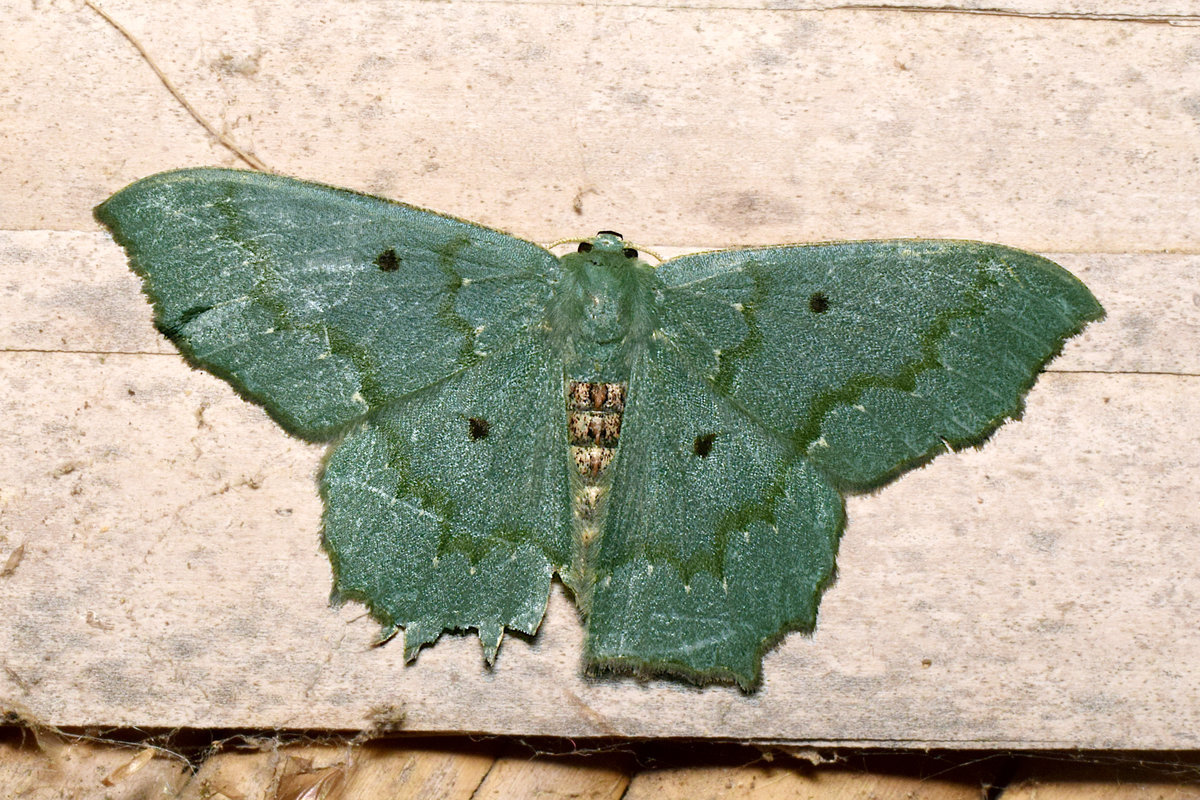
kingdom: Animalia
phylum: Arthropoda
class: Insecta
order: Lepidoptera
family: Geometridae
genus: Episothalma
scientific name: Episothalma robustaria
